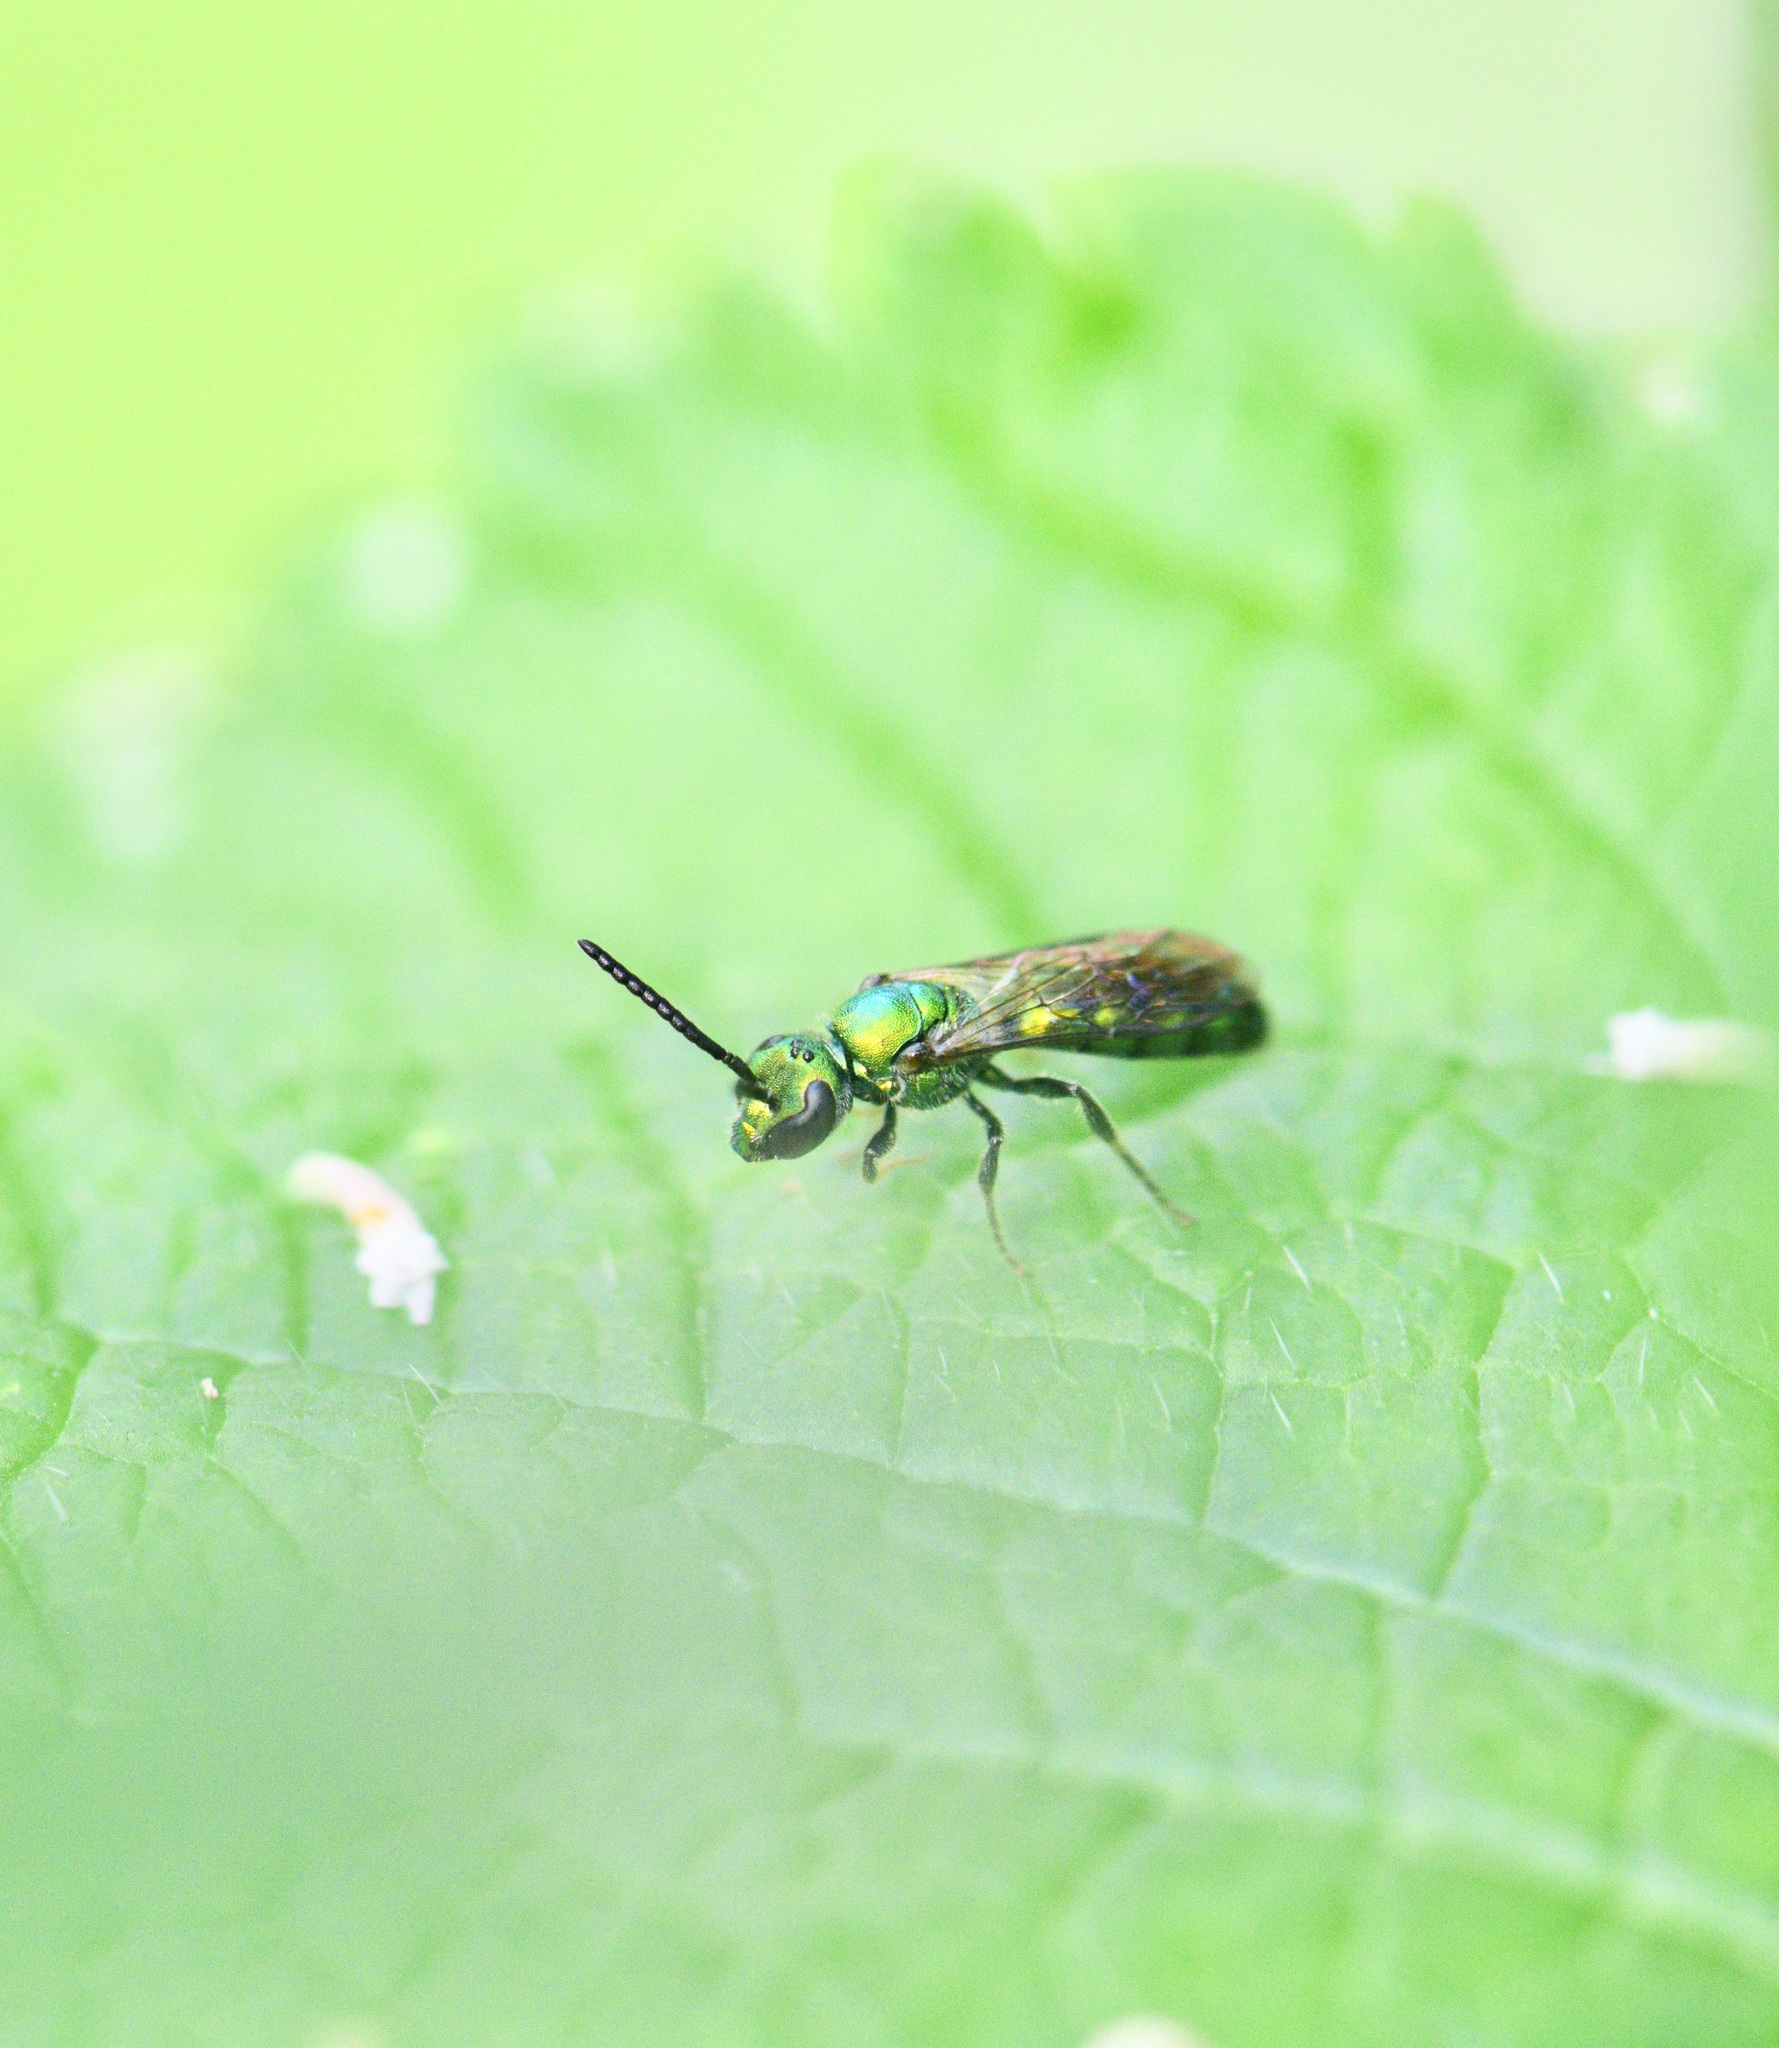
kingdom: Animalia
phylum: Arthropoda
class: Insecta
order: Hymenoptera
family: Halictidae
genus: Augochlora
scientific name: Augochlora pura
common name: Pure green sweat bee
